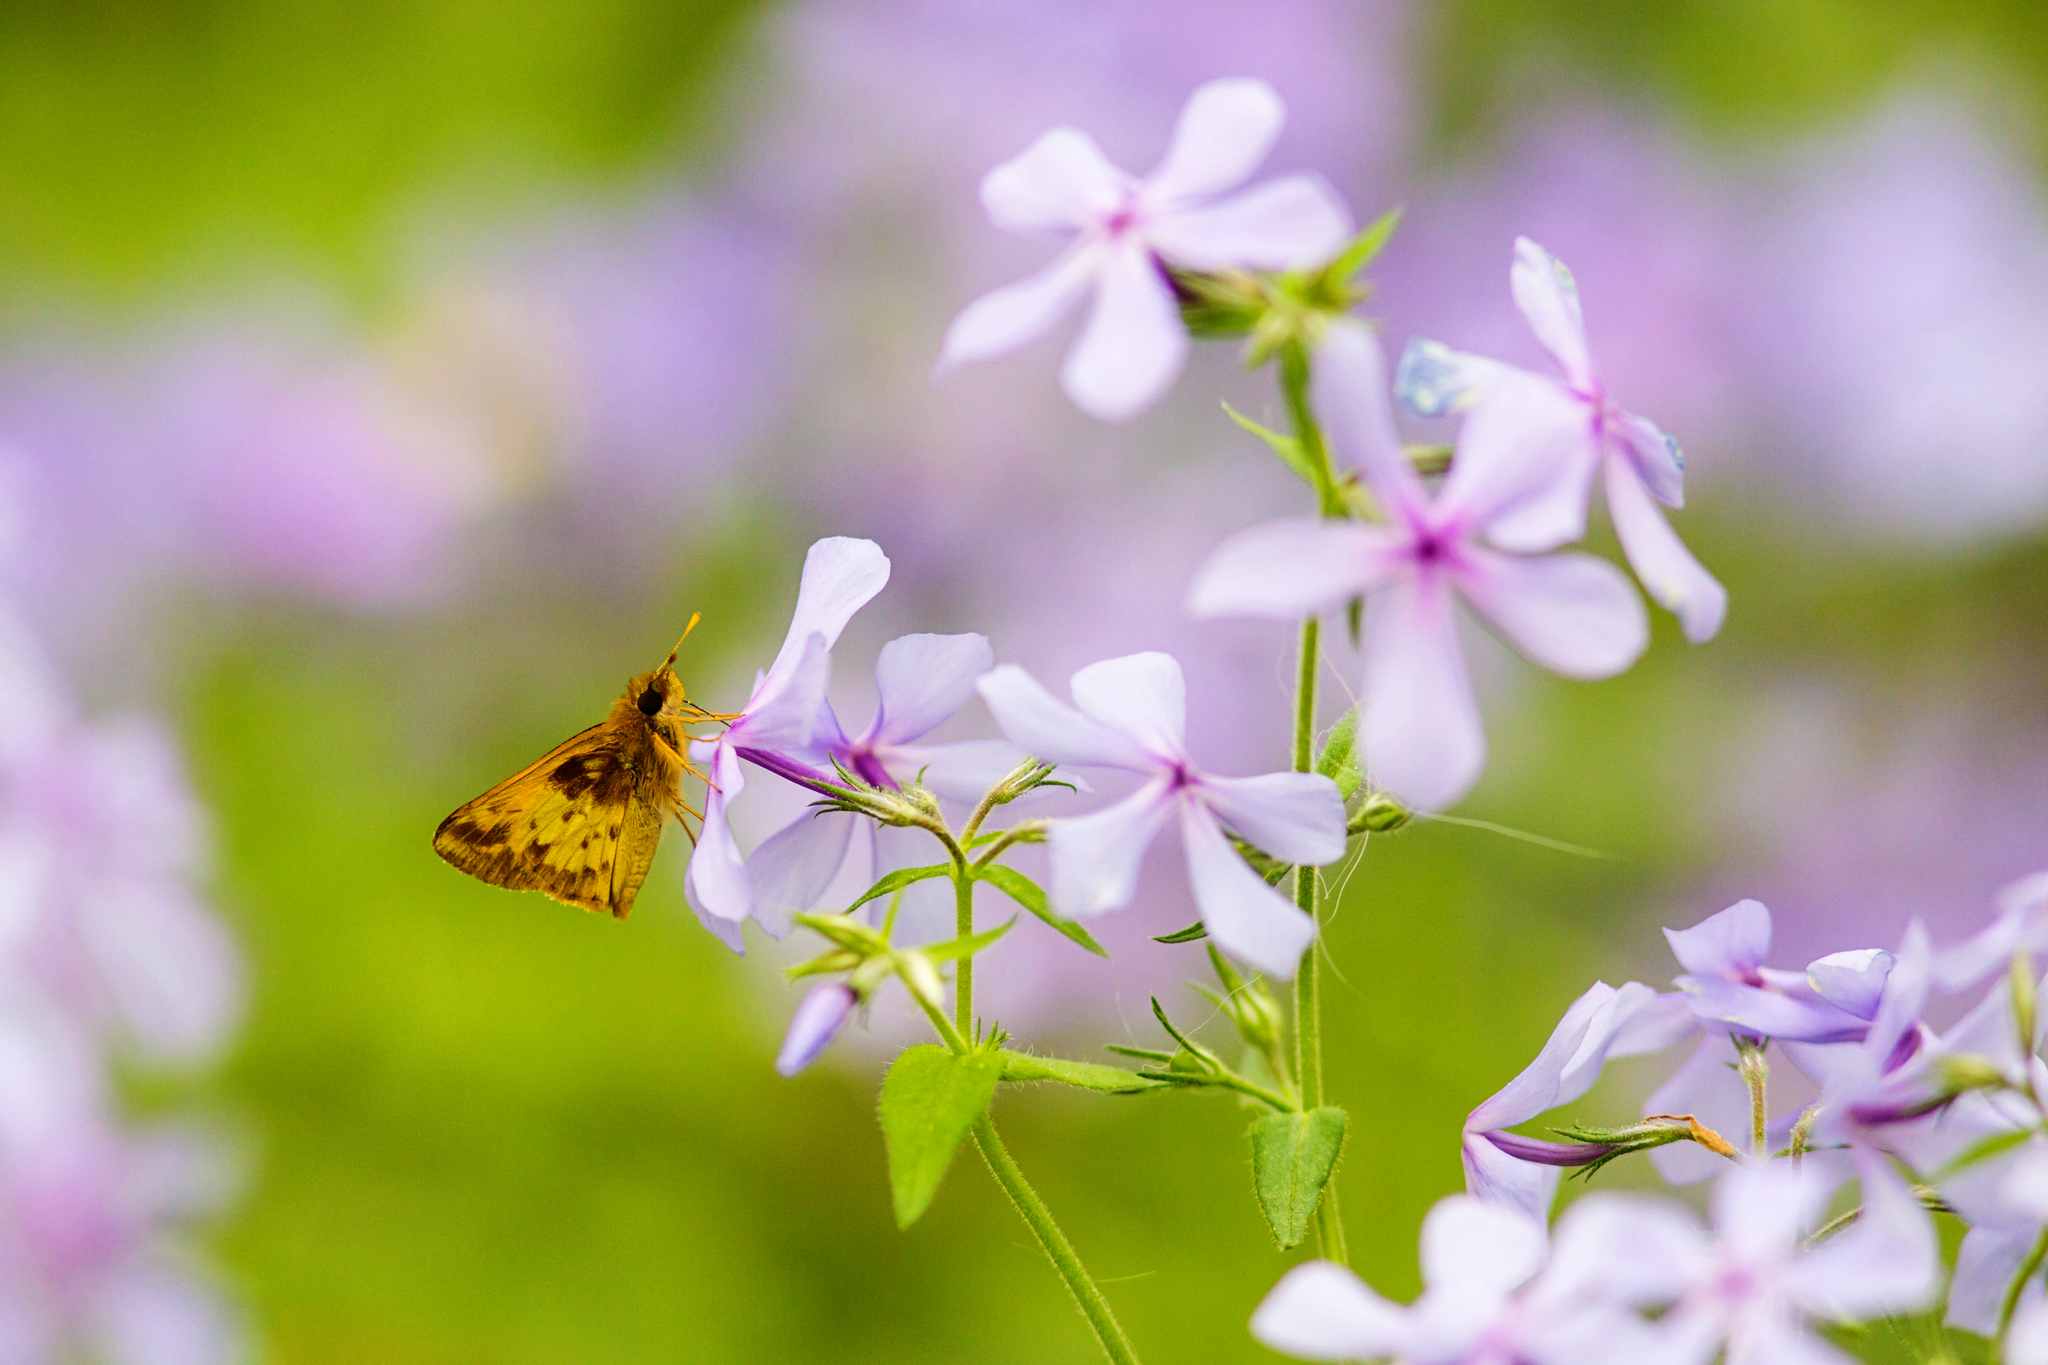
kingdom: Animalia
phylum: Arthropoda
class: Insecta
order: Lepidoptera
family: Hesperiidae
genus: Lon
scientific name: Lon zabulon
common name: Zabulon skipper
